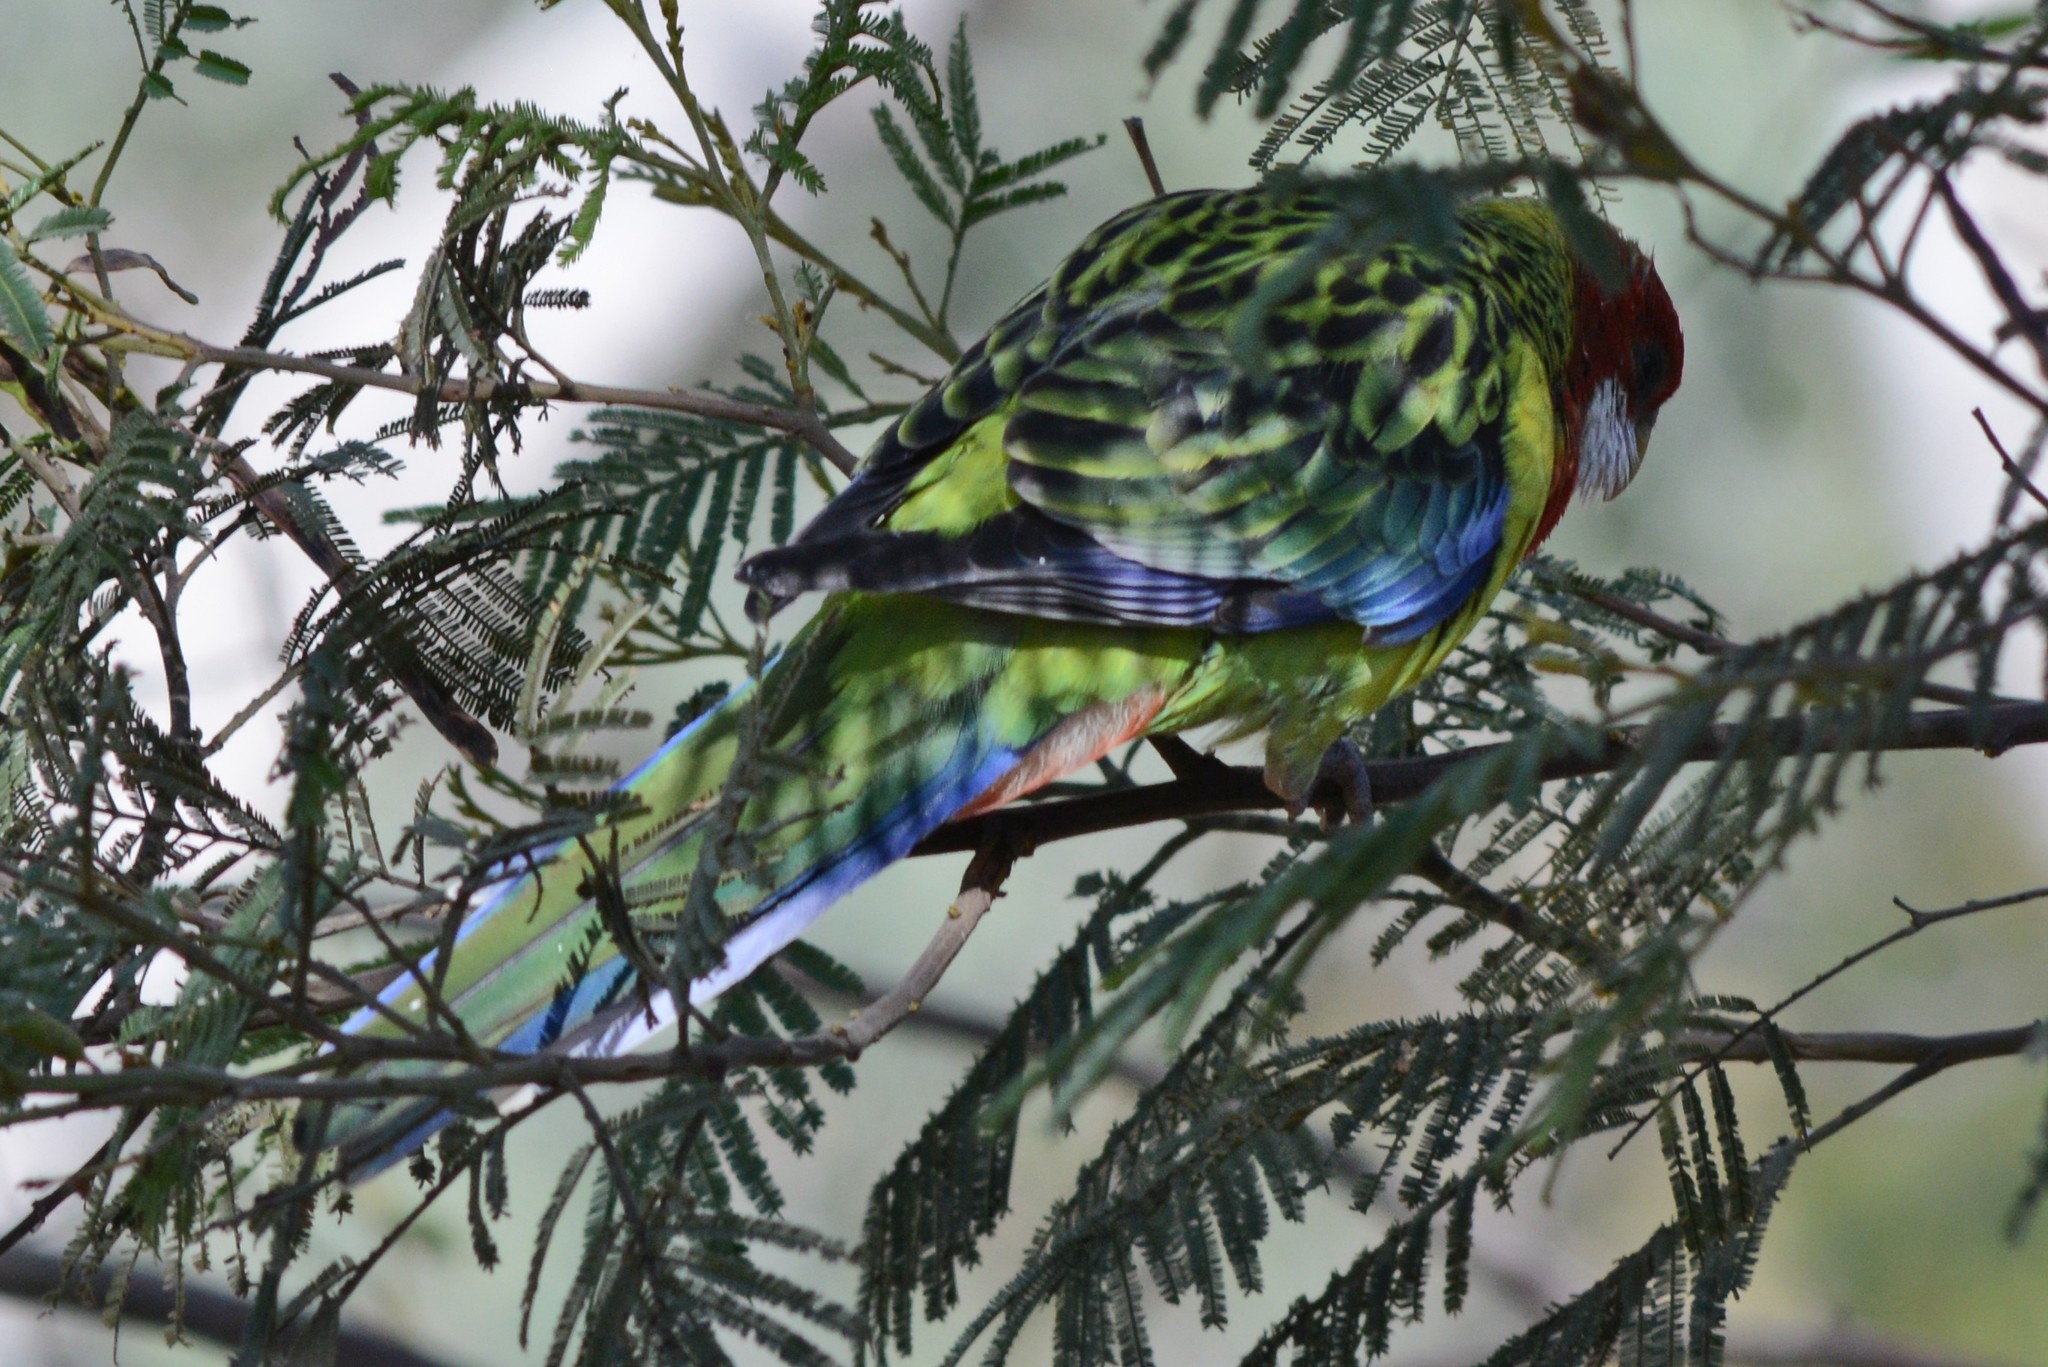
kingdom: Animalia
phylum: Chordata
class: Aves
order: Psittaciformes
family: Psittacidae
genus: Platycercus
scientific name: Platycercus eximius
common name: Eastern rosella
